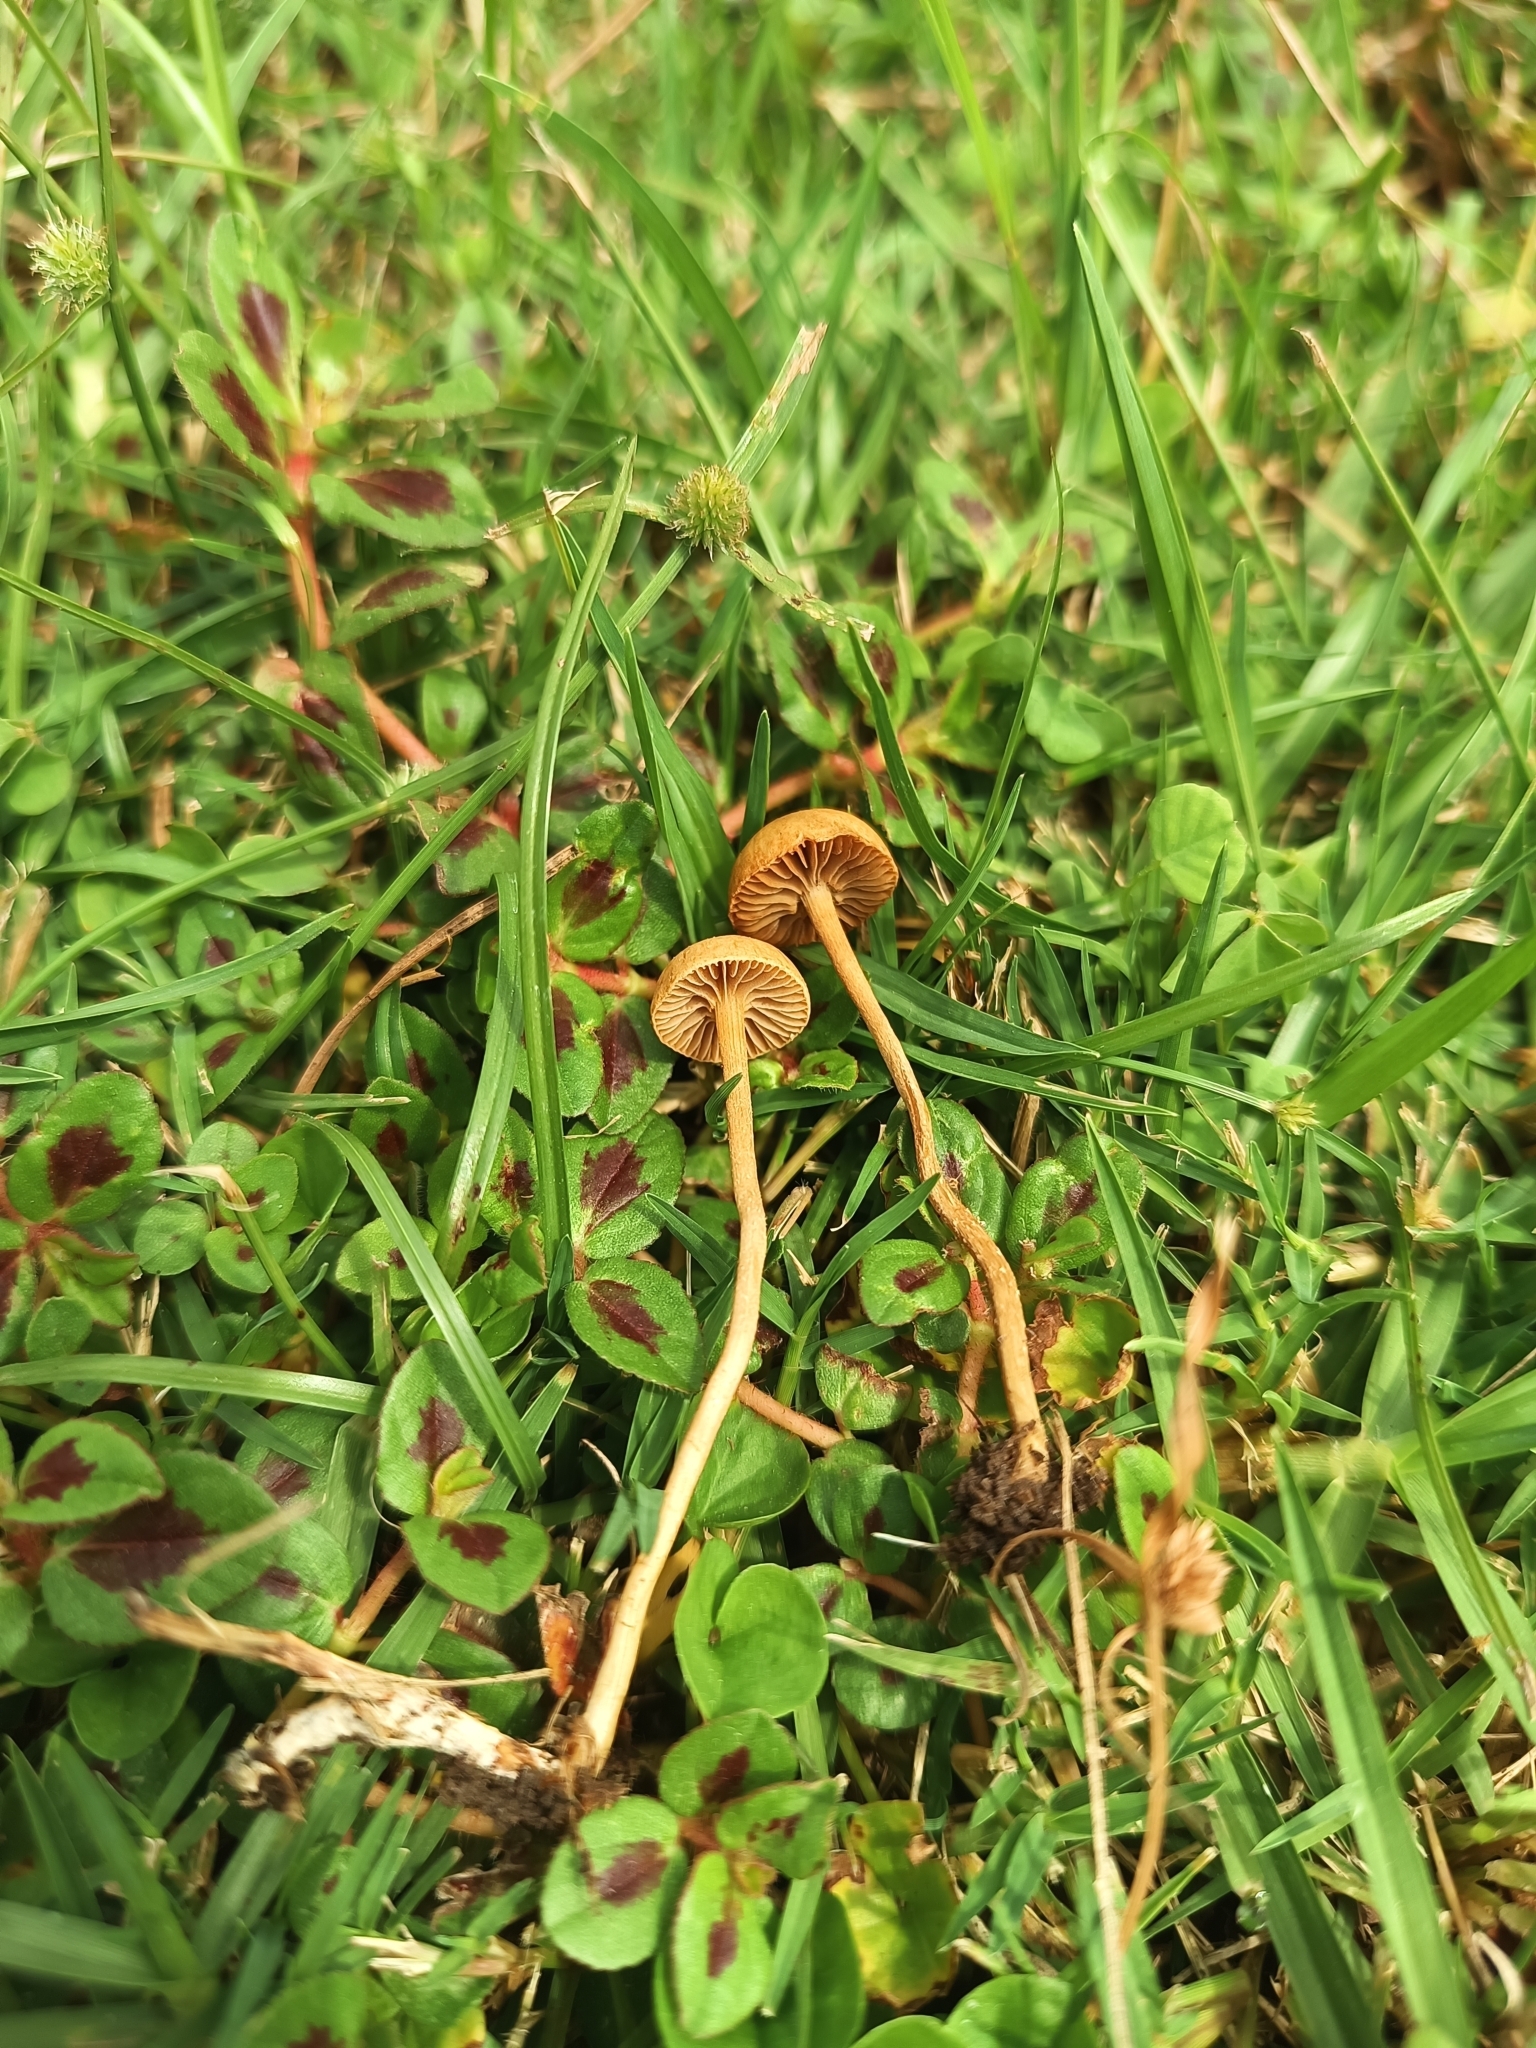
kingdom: Fungi
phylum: Basidiomycota
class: Agaricomycetes
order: Agaricales
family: Strophariaceae
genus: Agrocybe
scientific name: Agrocybe pediades
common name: Common fieldcap
